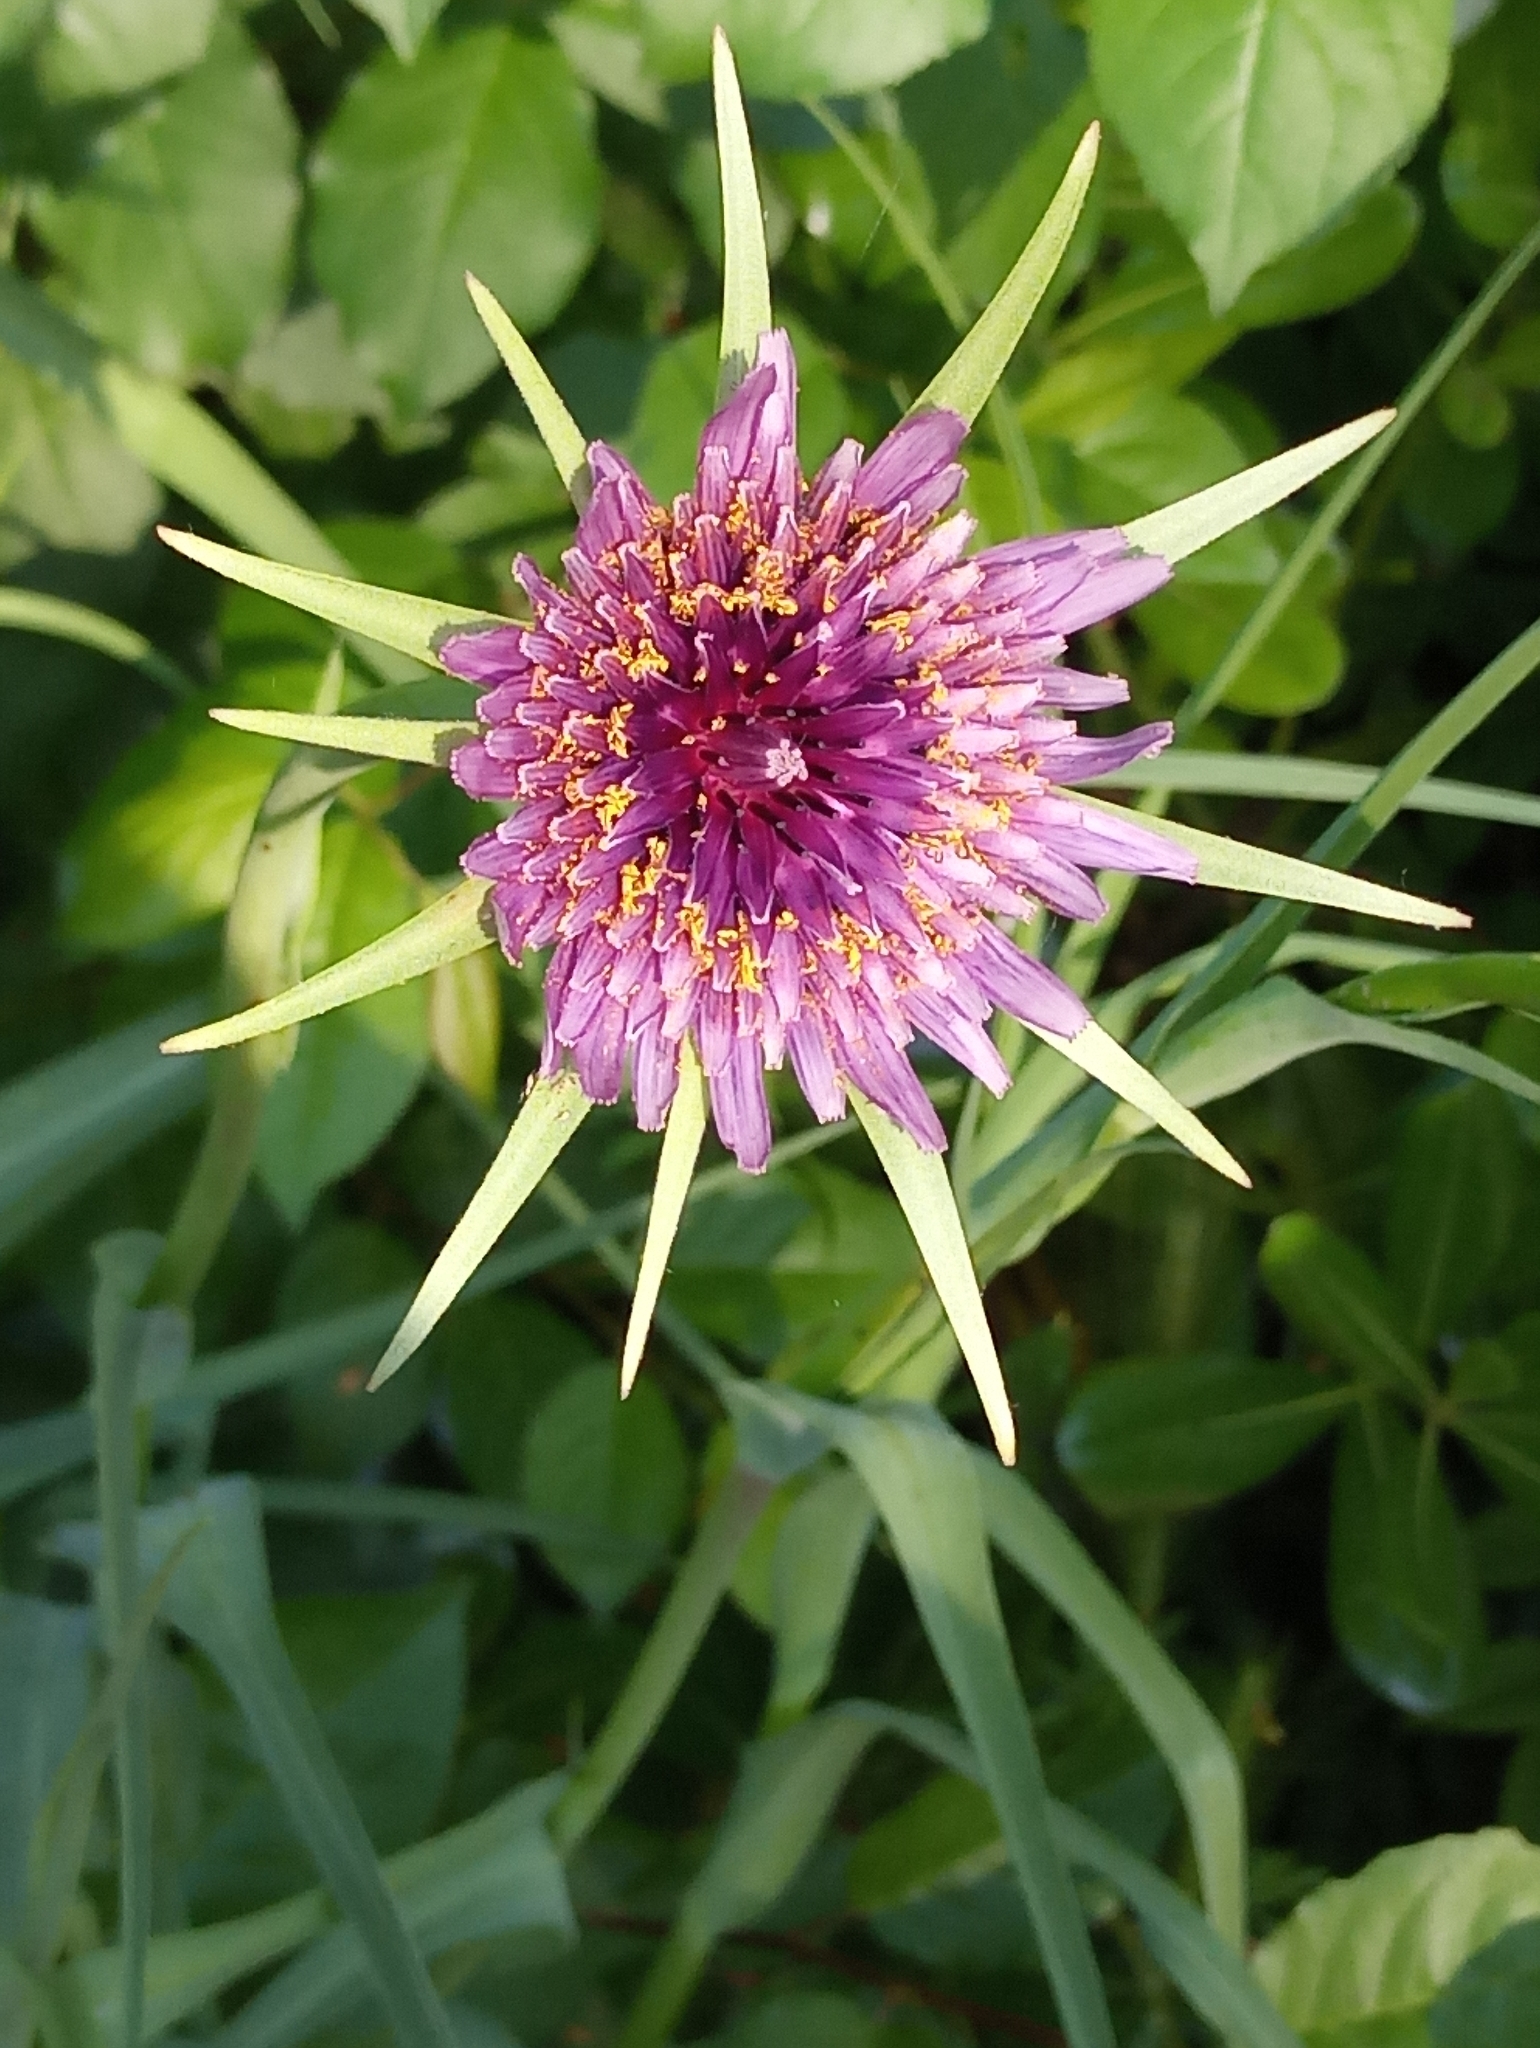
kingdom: Plantae
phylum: Tracheophyta
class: Magnoliopsida
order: Asterales
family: Asteraceae
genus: Tragopogon
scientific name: Tragopogon porrifolius
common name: Salsify
